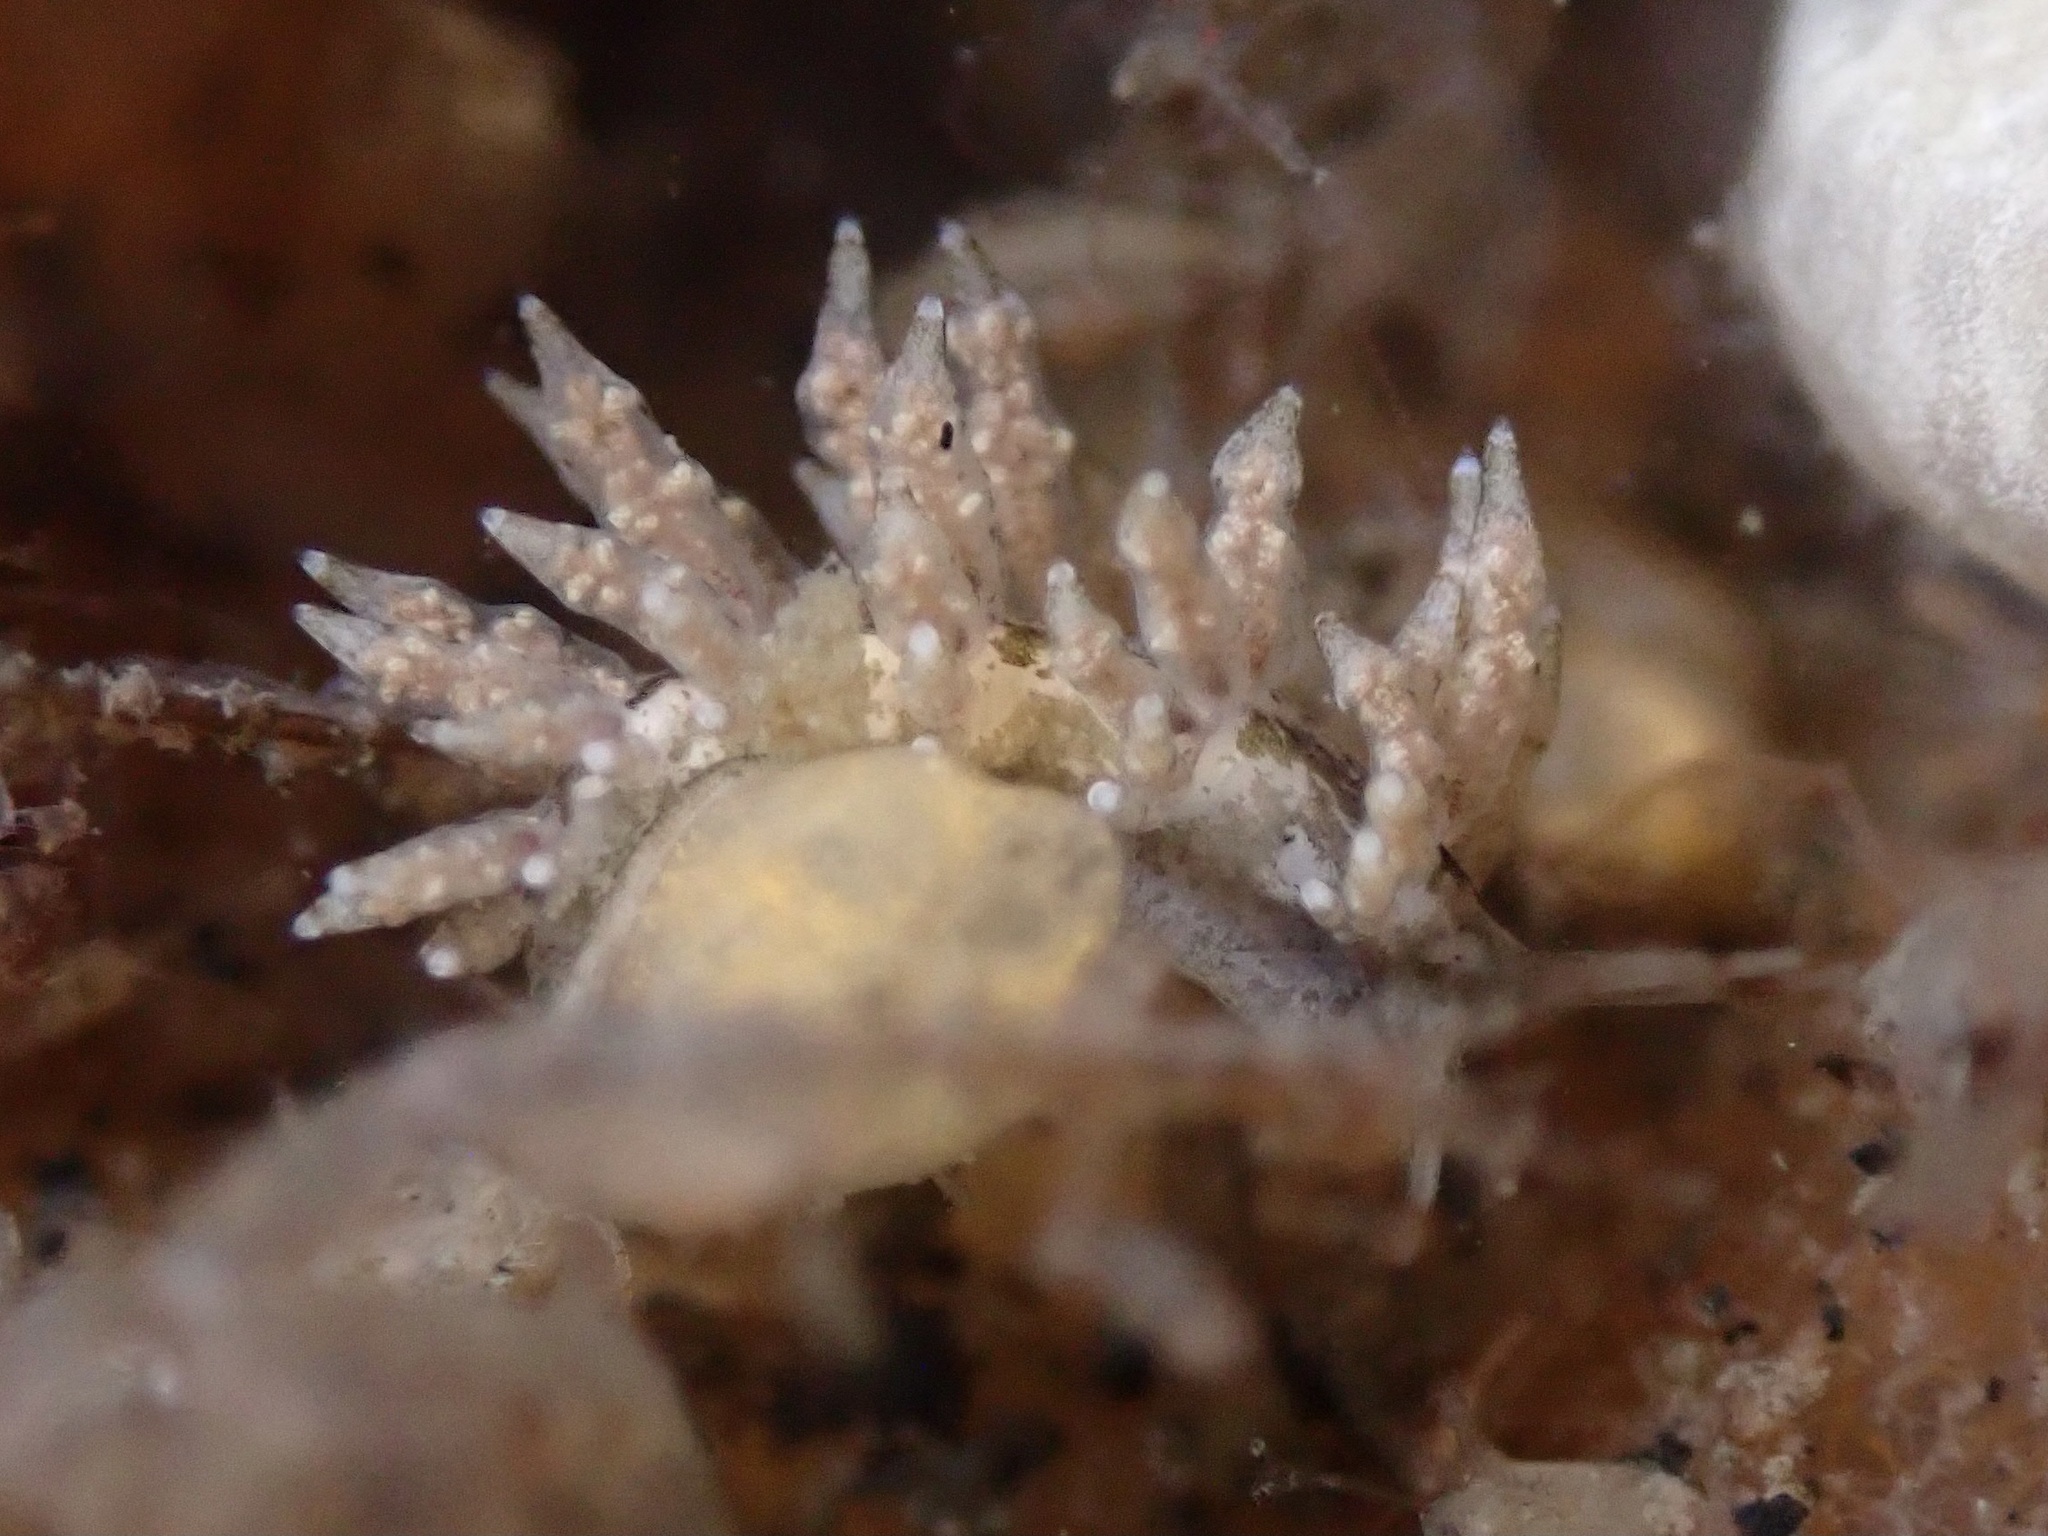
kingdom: Animalia
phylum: Mollusca
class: Gastropoda
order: Nudibranchia
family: Eubranchidae
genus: Eubranchus
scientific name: Eubranchus rustyus
